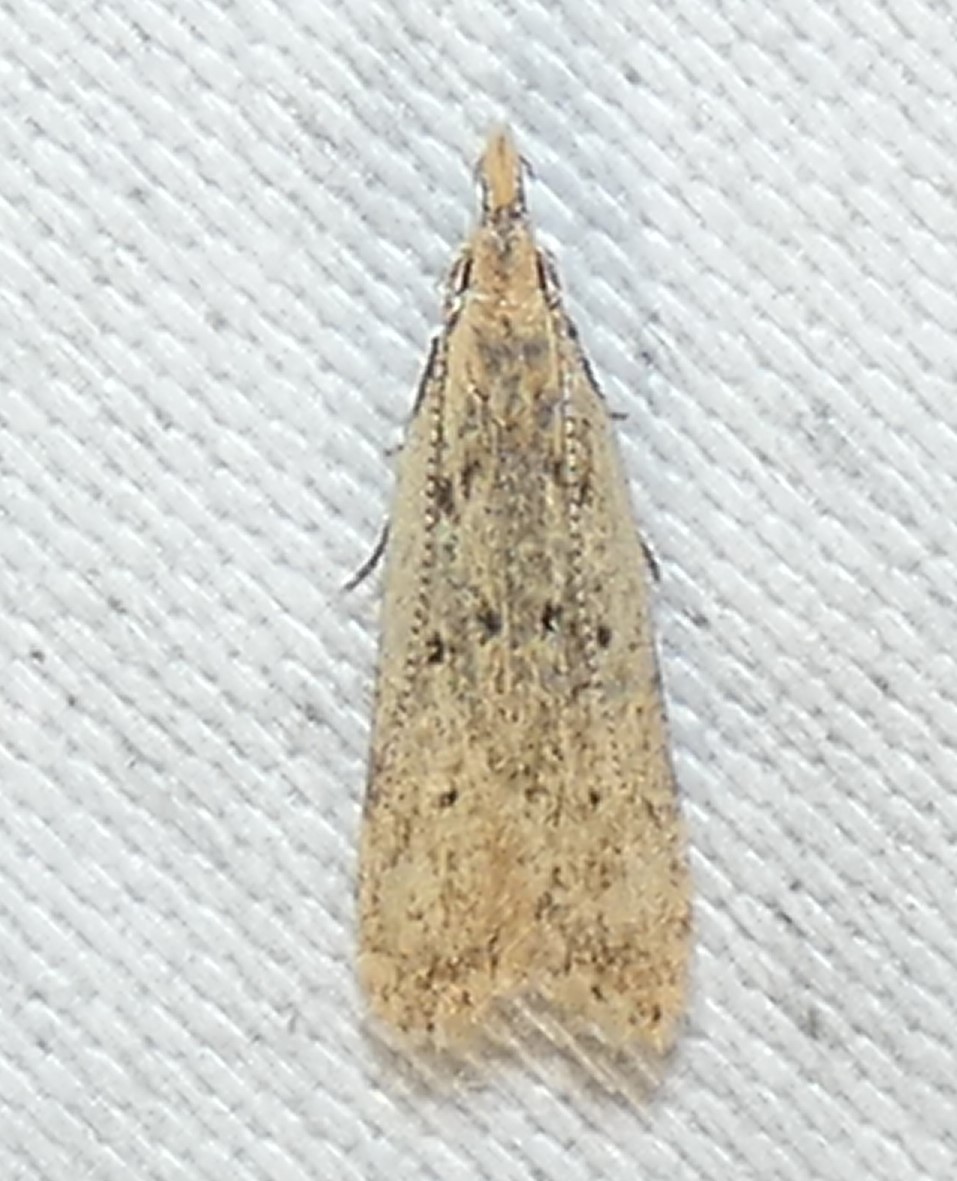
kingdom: Animalia
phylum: Arthropoda
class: Insecta
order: Lepidoptera
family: Gelechiidae
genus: Dichomeris
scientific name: Dichomeris punctipennella
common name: Many-spotted dichomeris moth
